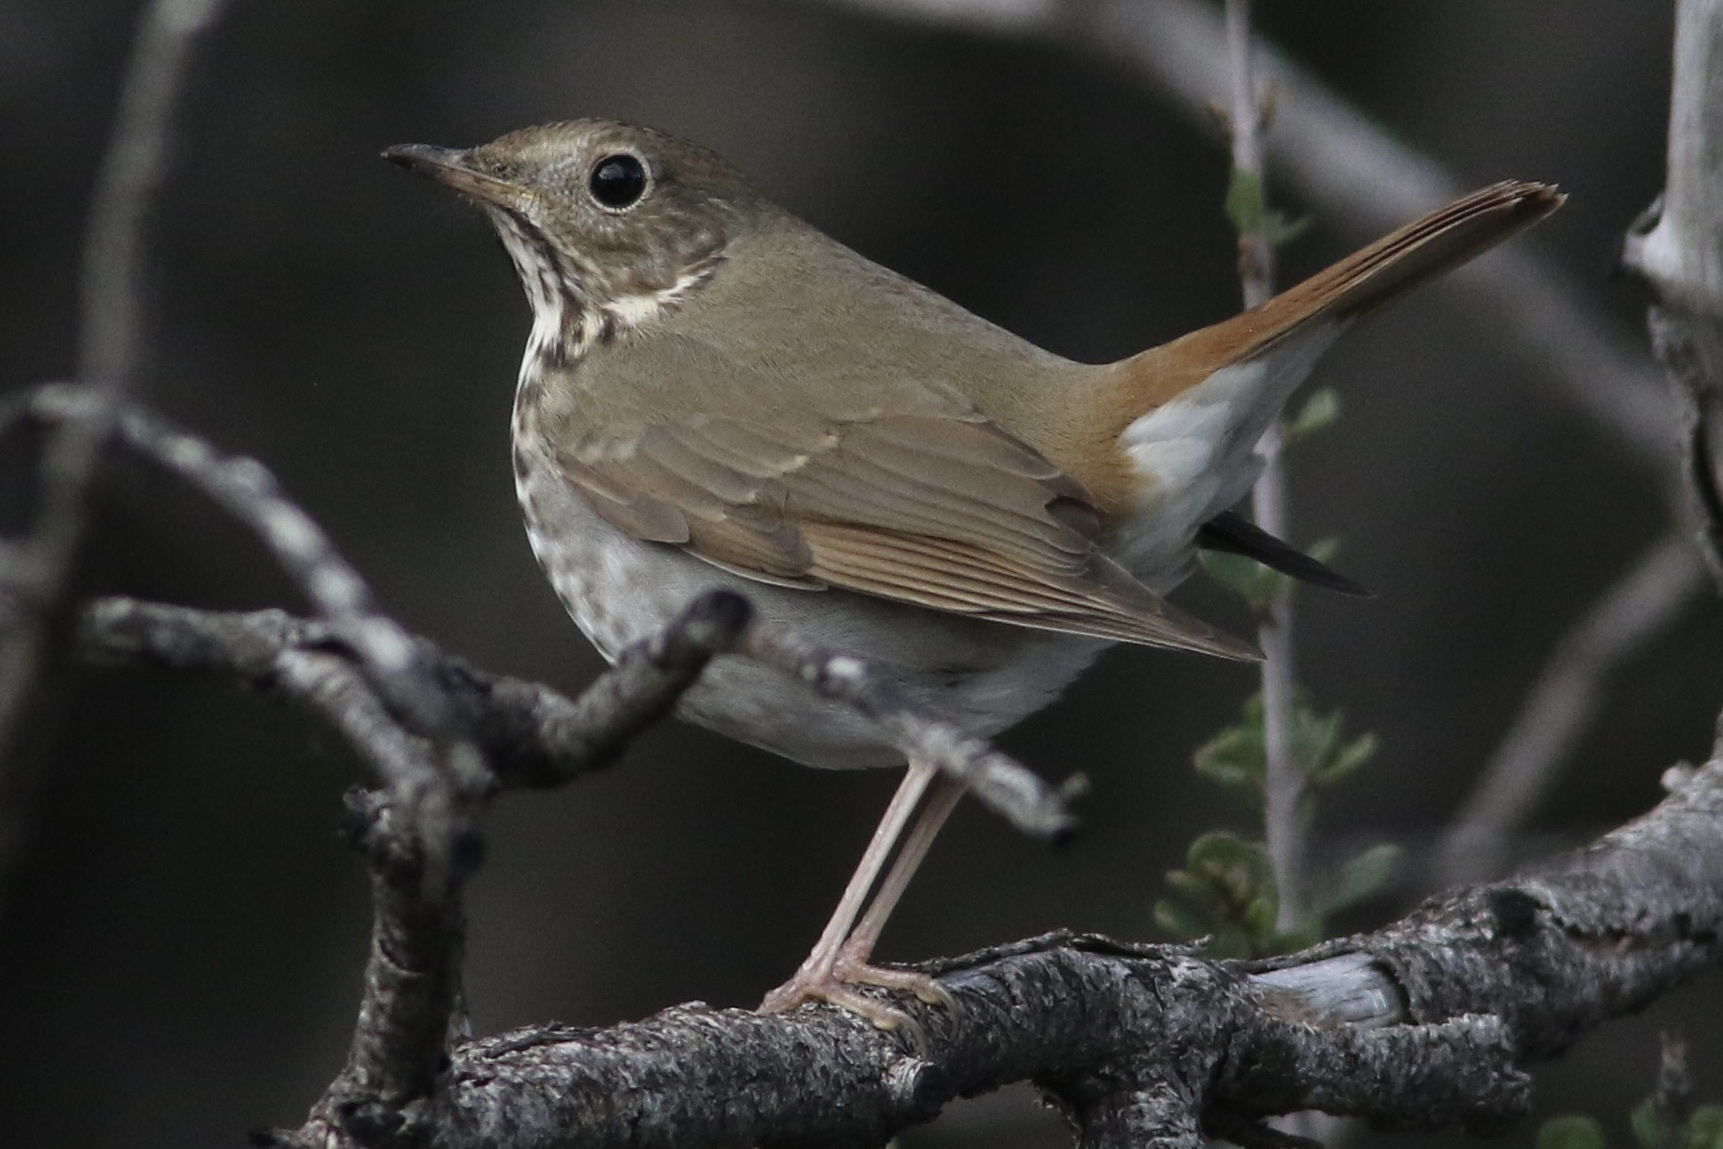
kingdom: Animalia
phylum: Chordata
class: Aves
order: Passeriformes
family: Turdidae
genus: Catharus
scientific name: Catharus guttatus
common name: Hermit thrush
